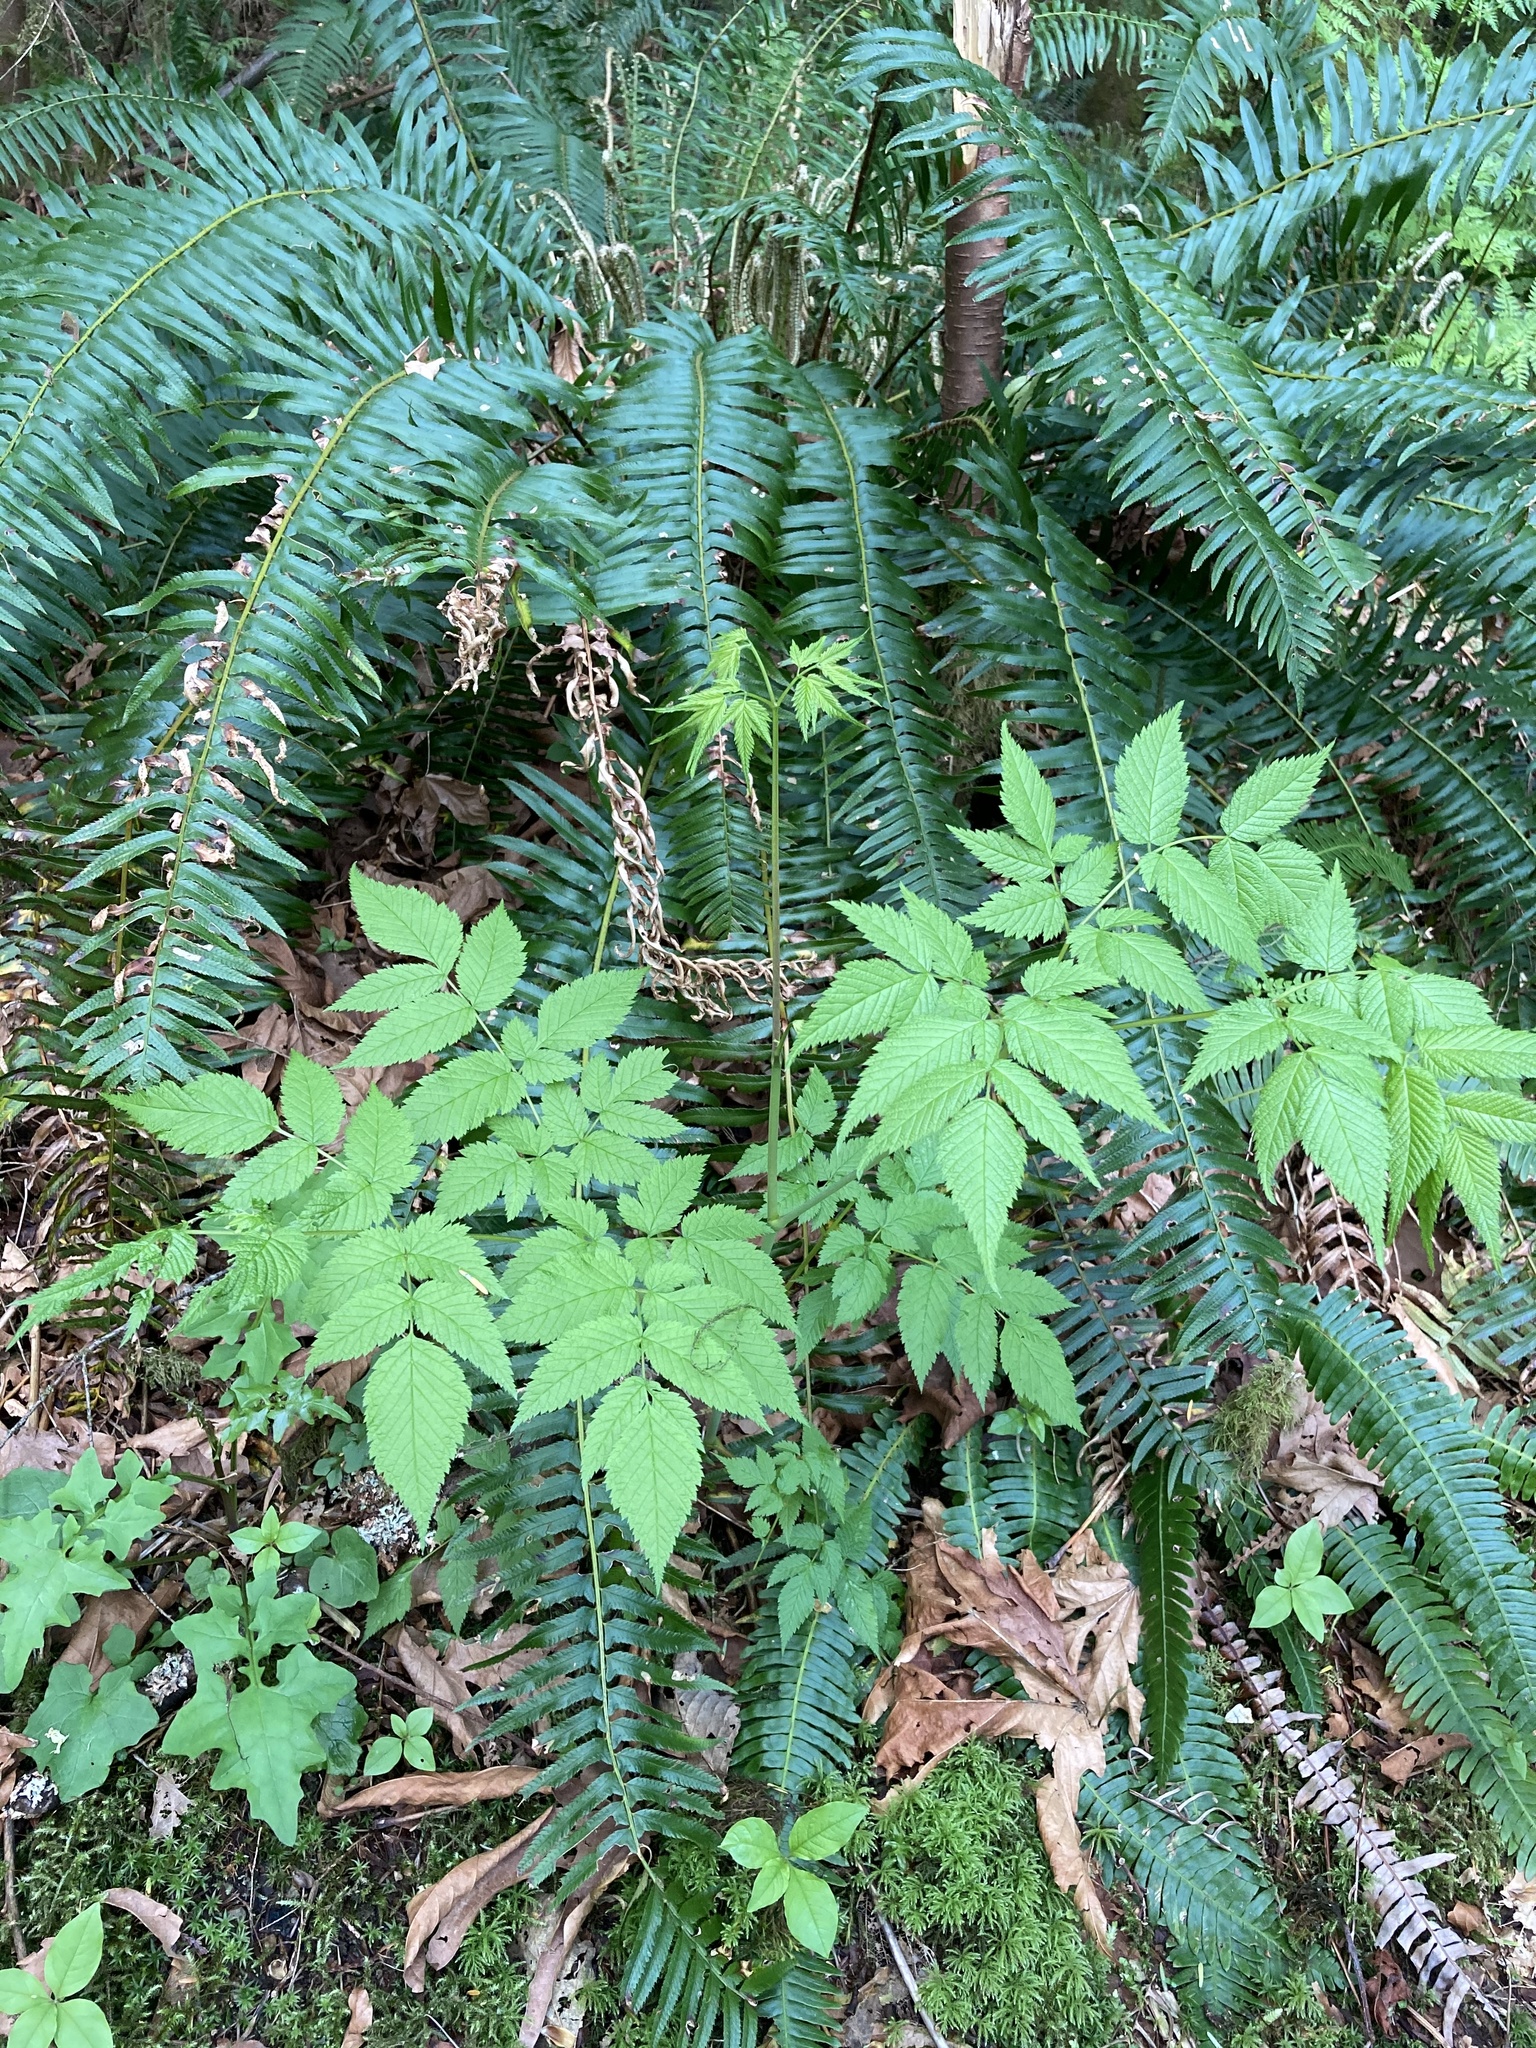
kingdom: Plantae
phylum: Tracheophyta
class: Magnoliopsida
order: Rosales
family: Rosaceae
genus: Aruncus
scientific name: Aruncus dioicus
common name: Buck's-beard
